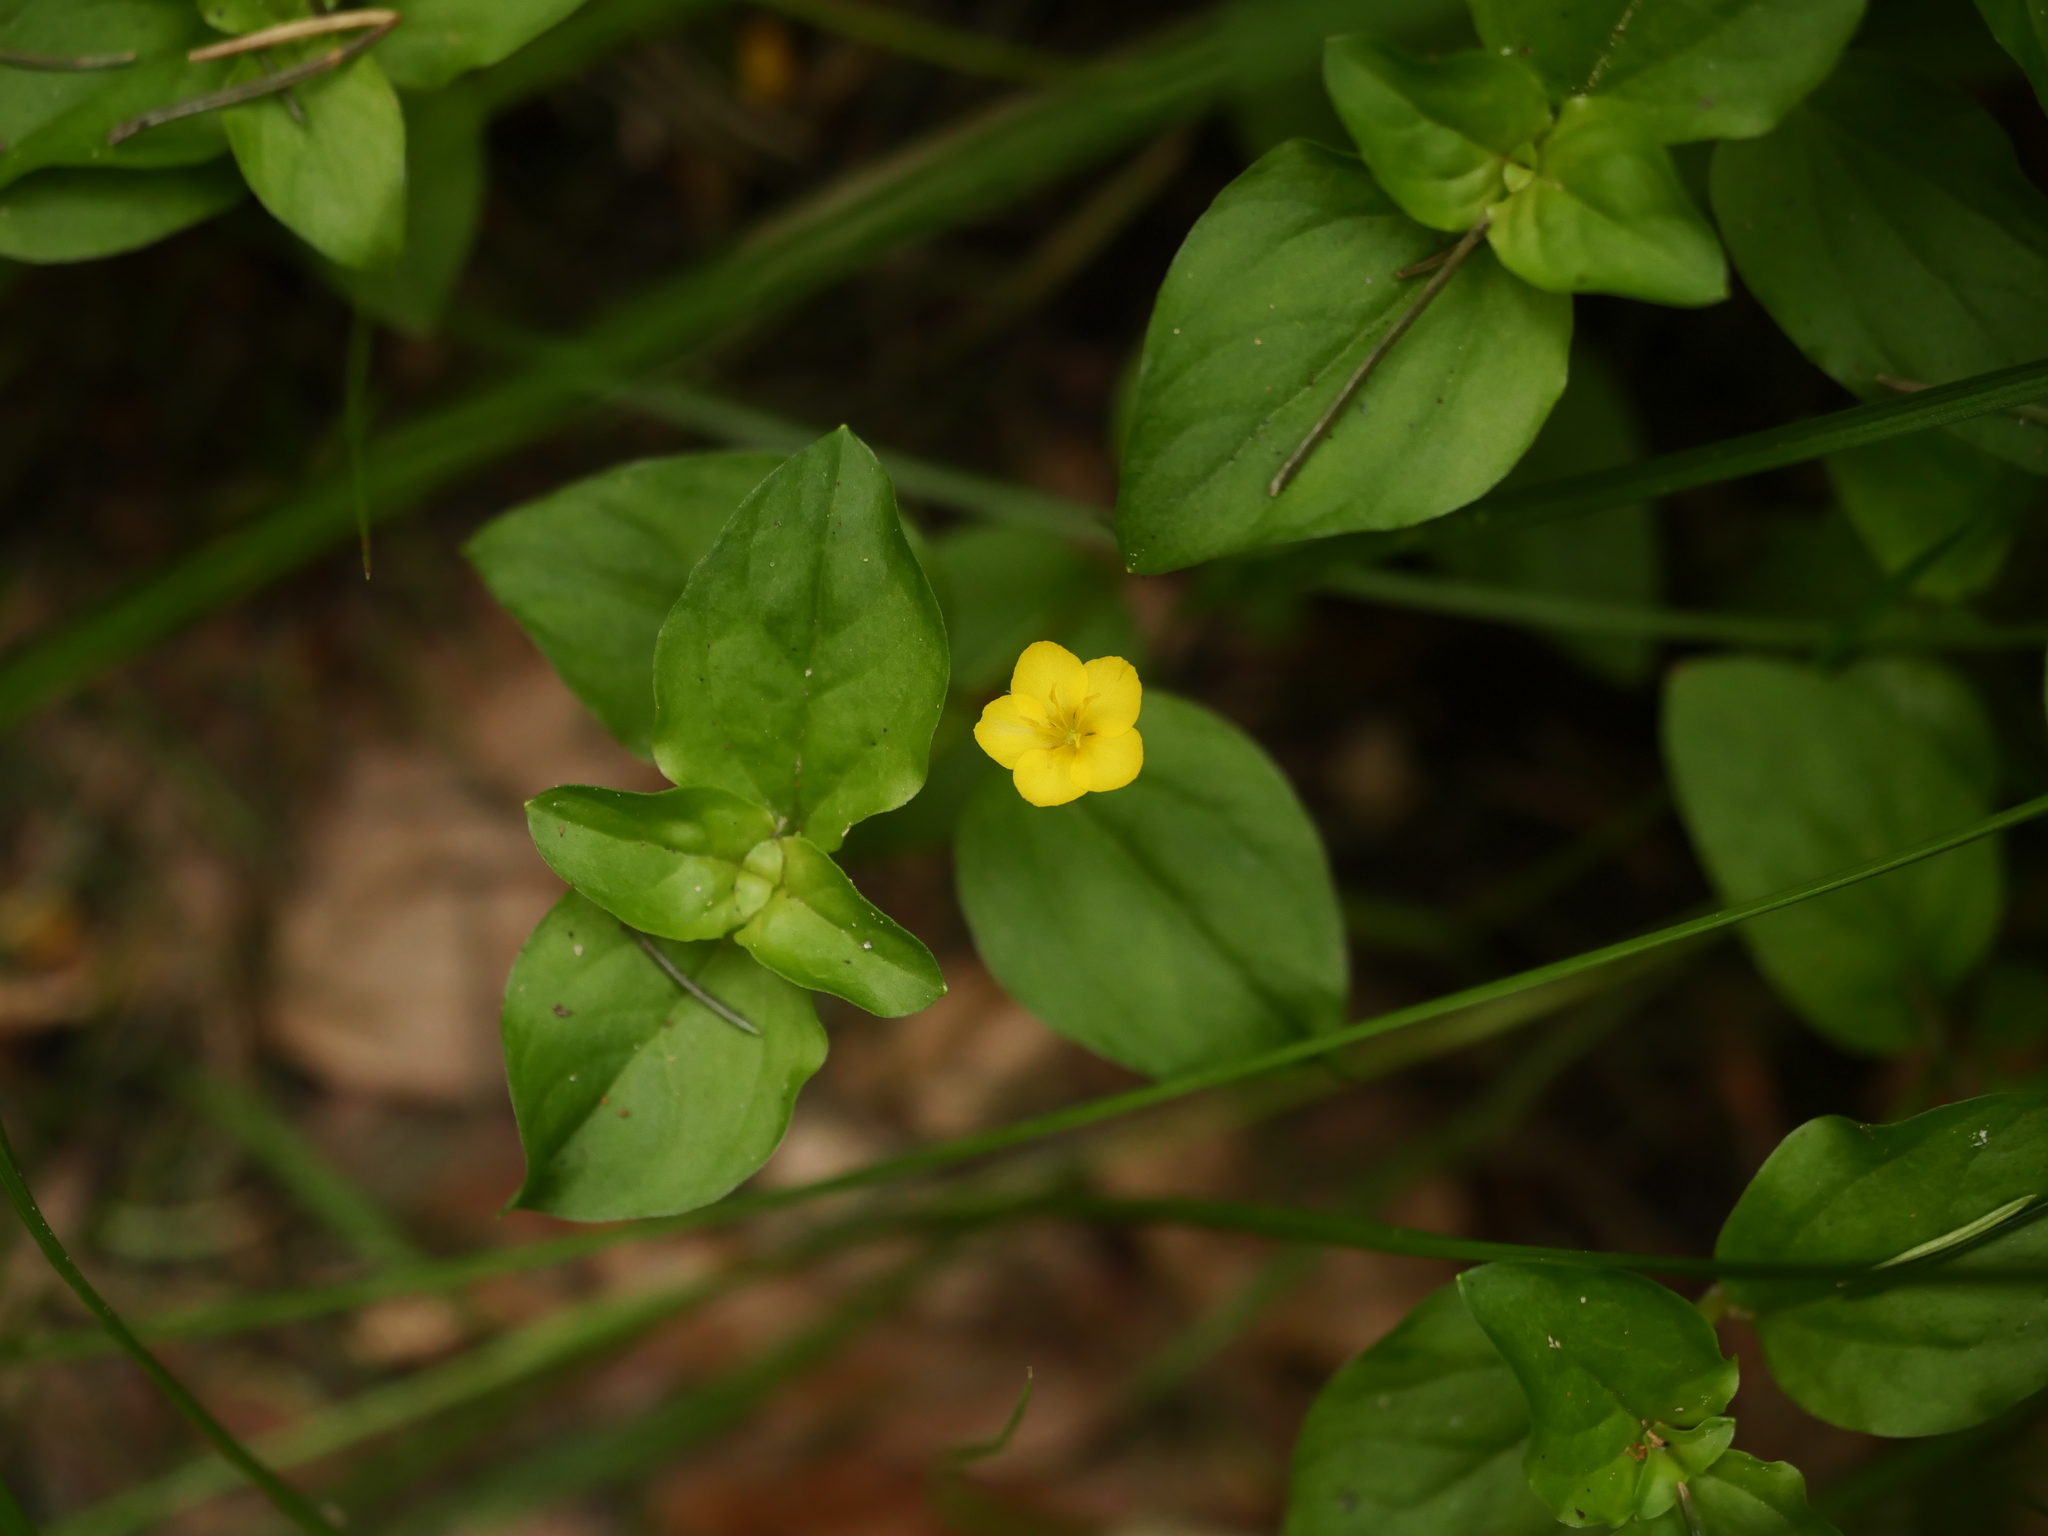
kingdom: Plantae
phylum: Tracheophyta
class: Magnoliopsida
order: Ericales
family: Primulaceae
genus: Lysimachia
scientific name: Lysimachia nemorum
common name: Yellow pimpernel
